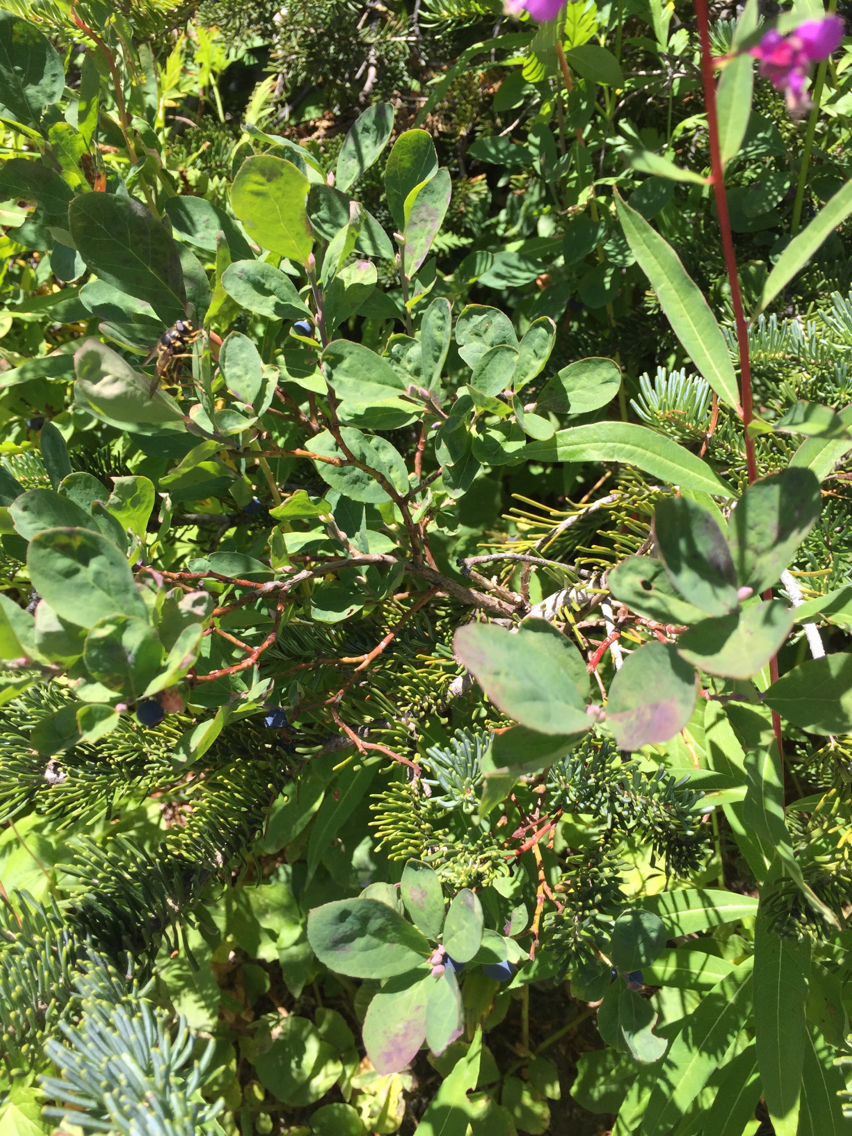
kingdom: Plantae
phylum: Tracheophyta
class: Magnoliopsida
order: Ericales
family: Ericaceae
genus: Vaccinium
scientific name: Vaccinium deliciosum
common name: Cascade bilberry
